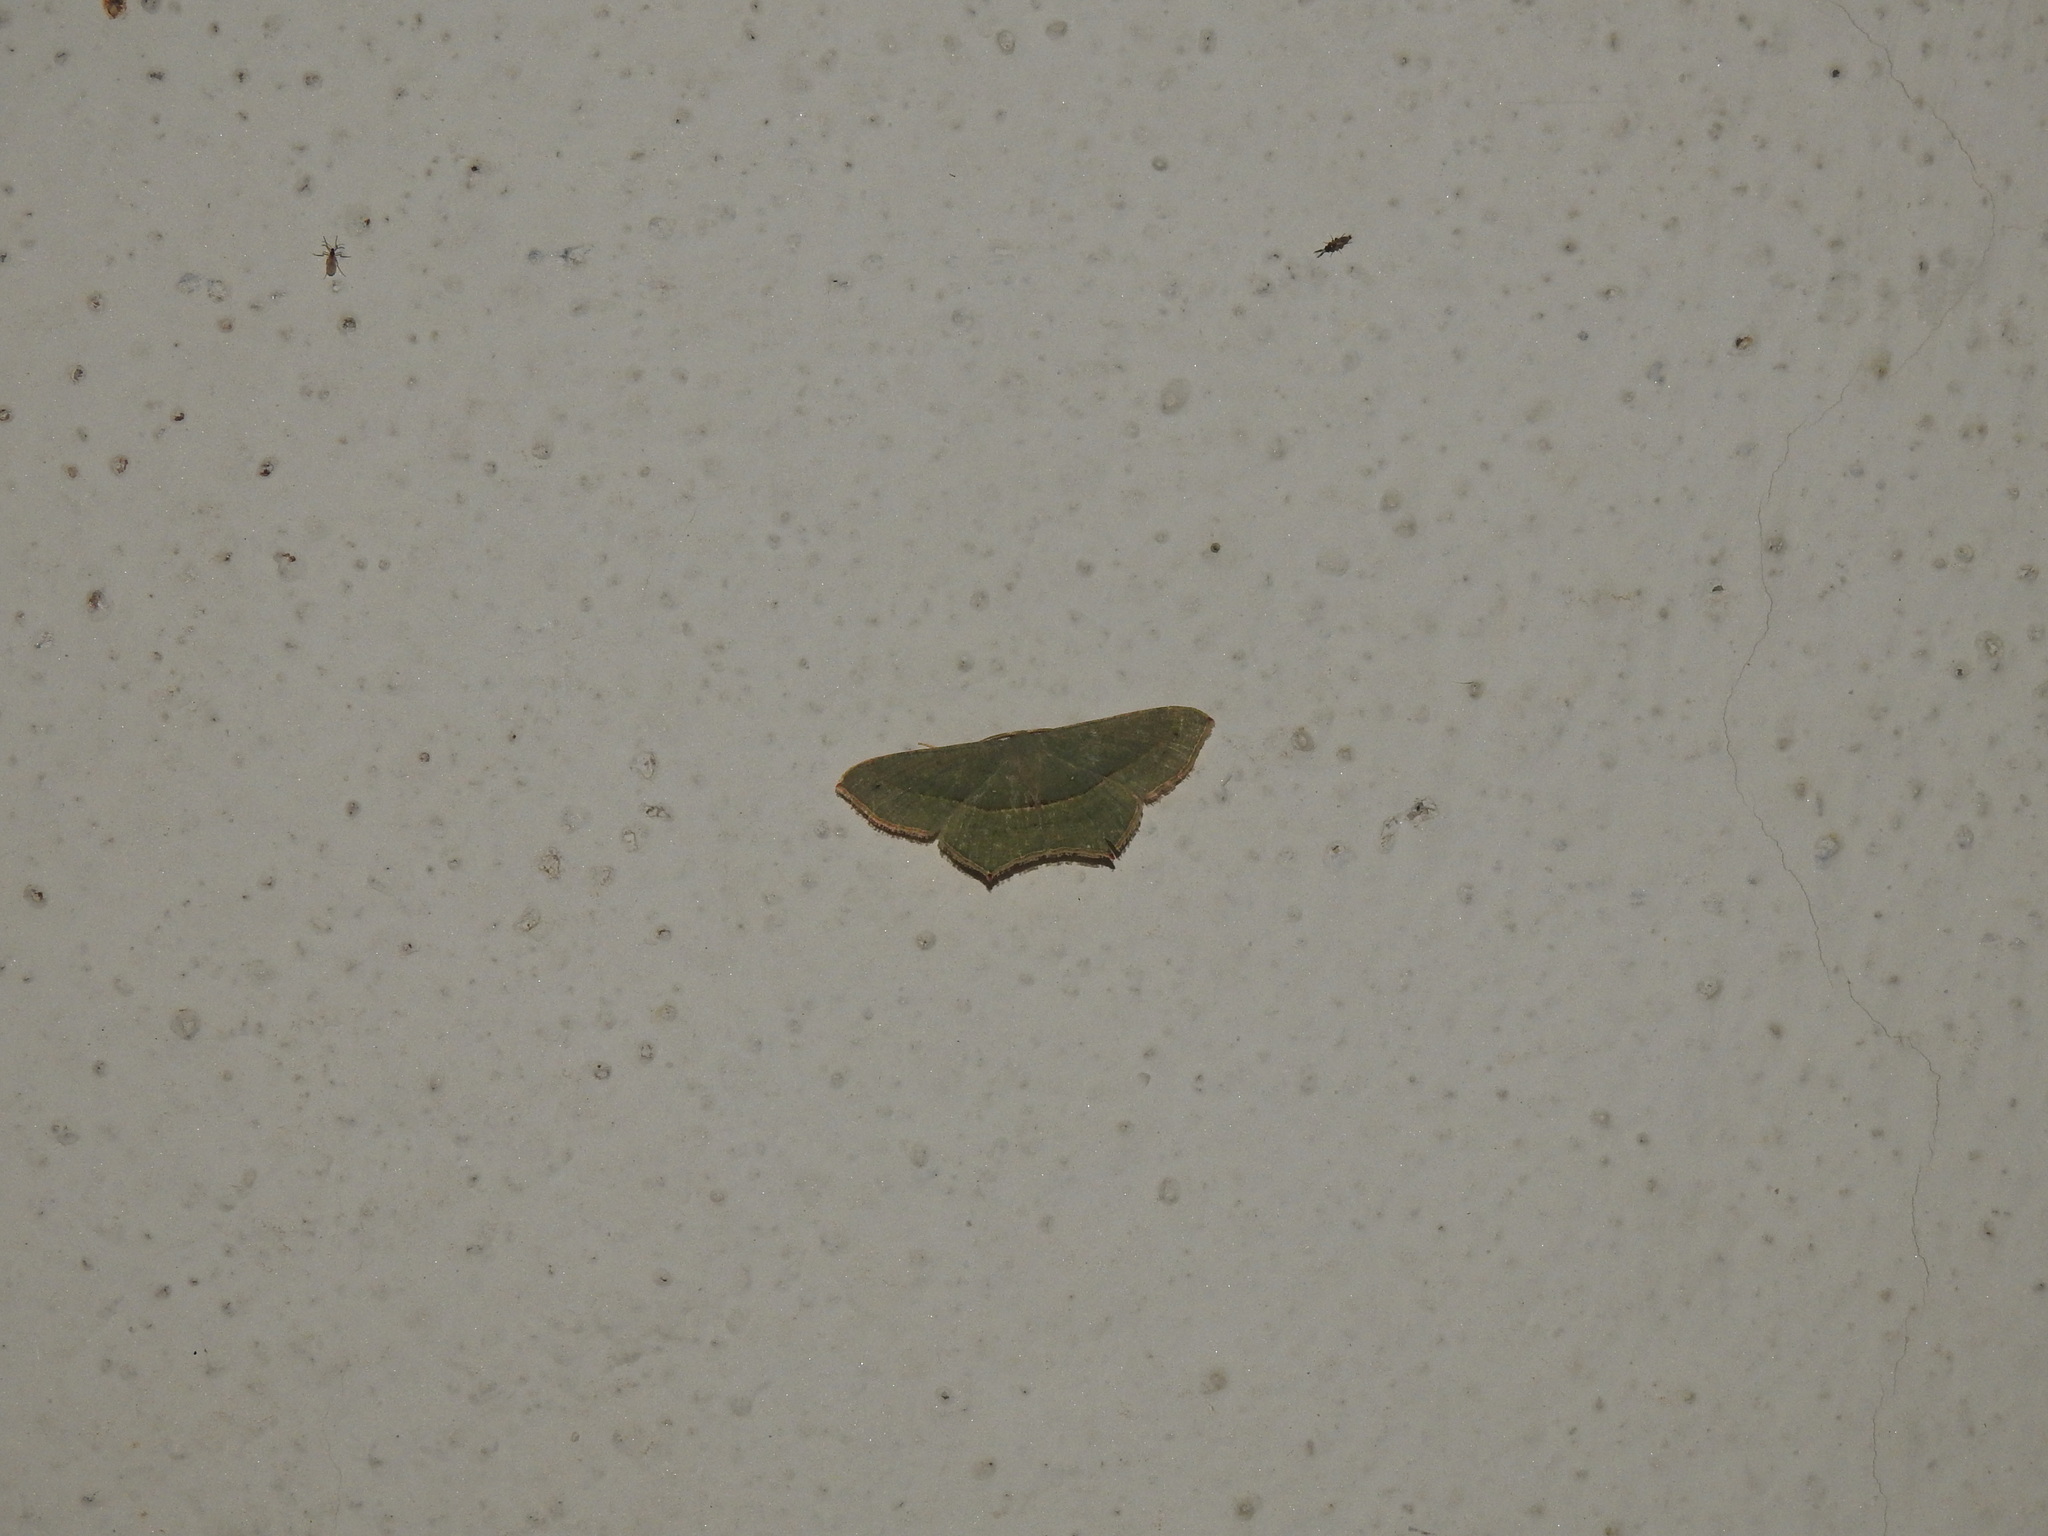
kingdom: Animalia
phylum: Arthropoda
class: Insecta
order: Lepidoptera
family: Geometridae
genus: Traminda
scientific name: Traminda mundissima
